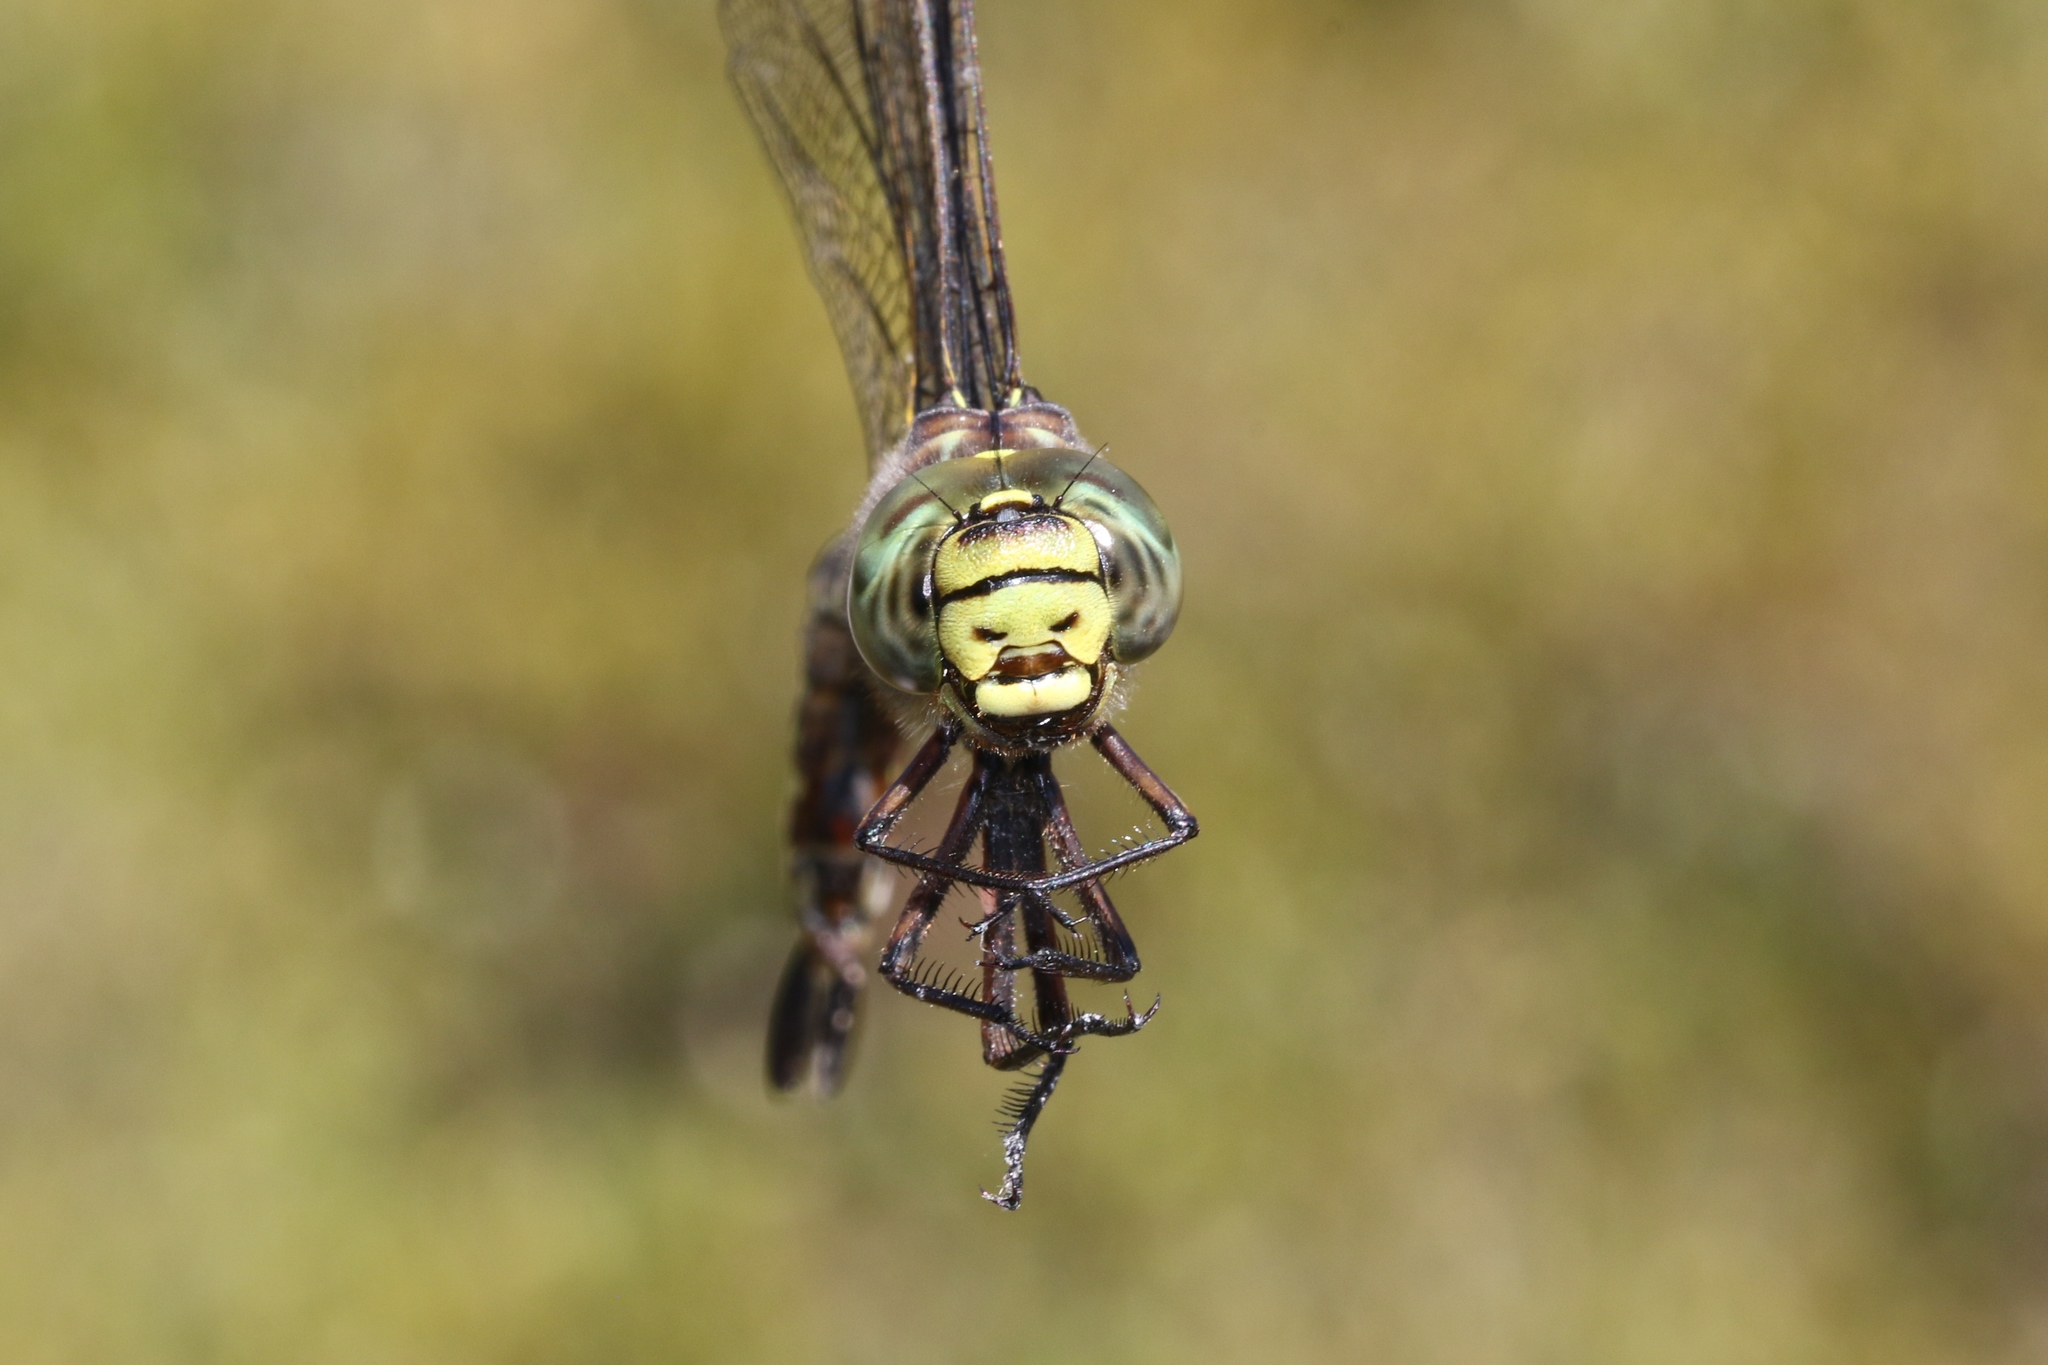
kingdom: Animalia
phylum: Arthropoda
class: Insecta
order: Odonata
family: Aeshnidae
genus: Aeshna
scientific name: Aeshna subarctica
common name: Subarctic darner
